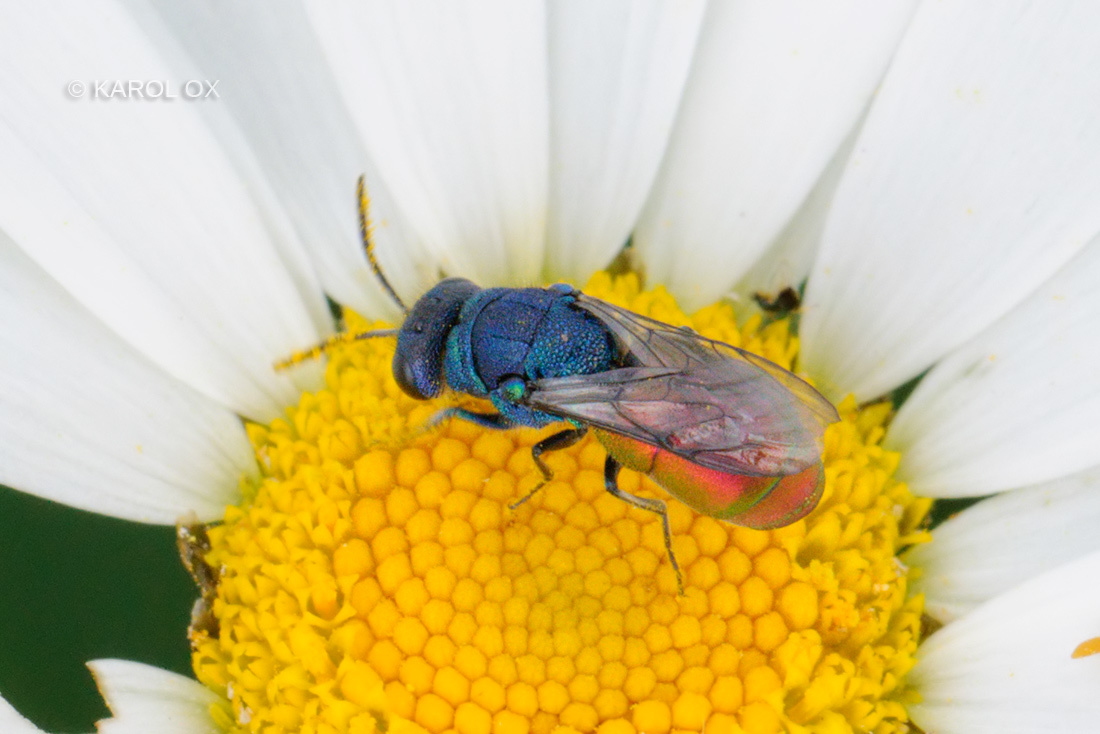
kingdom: Animalia
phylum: Arthropoda
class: Insecta
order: Hymenoptera
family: Chrysididae
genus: Pseudospinolia
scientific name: Pseudospinolia neglecta
